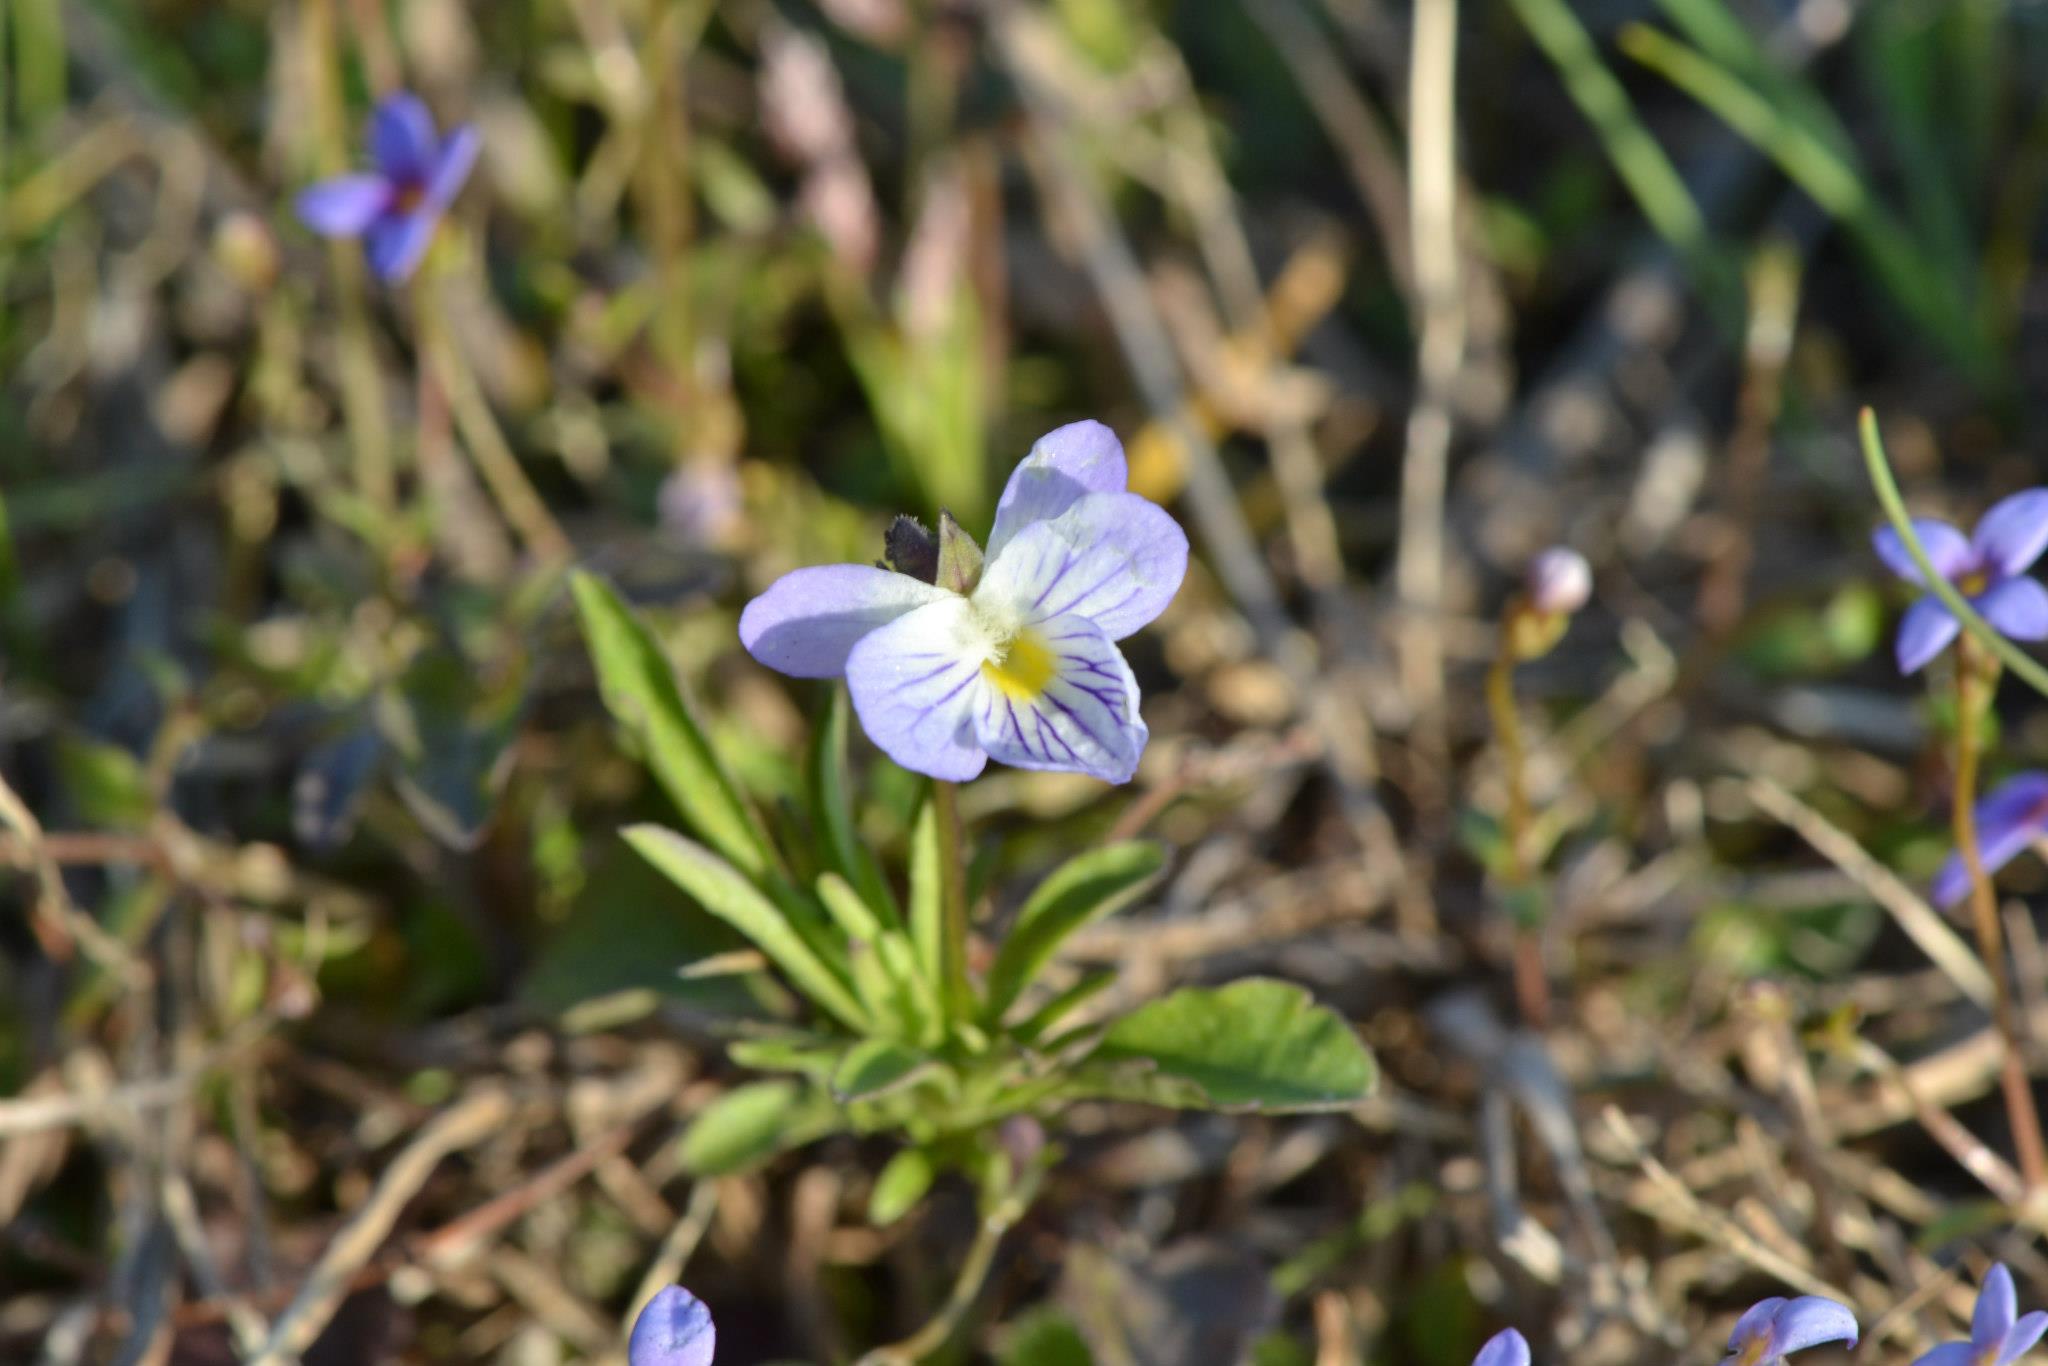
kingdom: Plantae
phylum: Tracheophyta
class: Magnoliopsida
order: Malpighiales
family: Violaceae
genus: Viola
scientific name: Viola rafinesquei
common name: American field pansy
